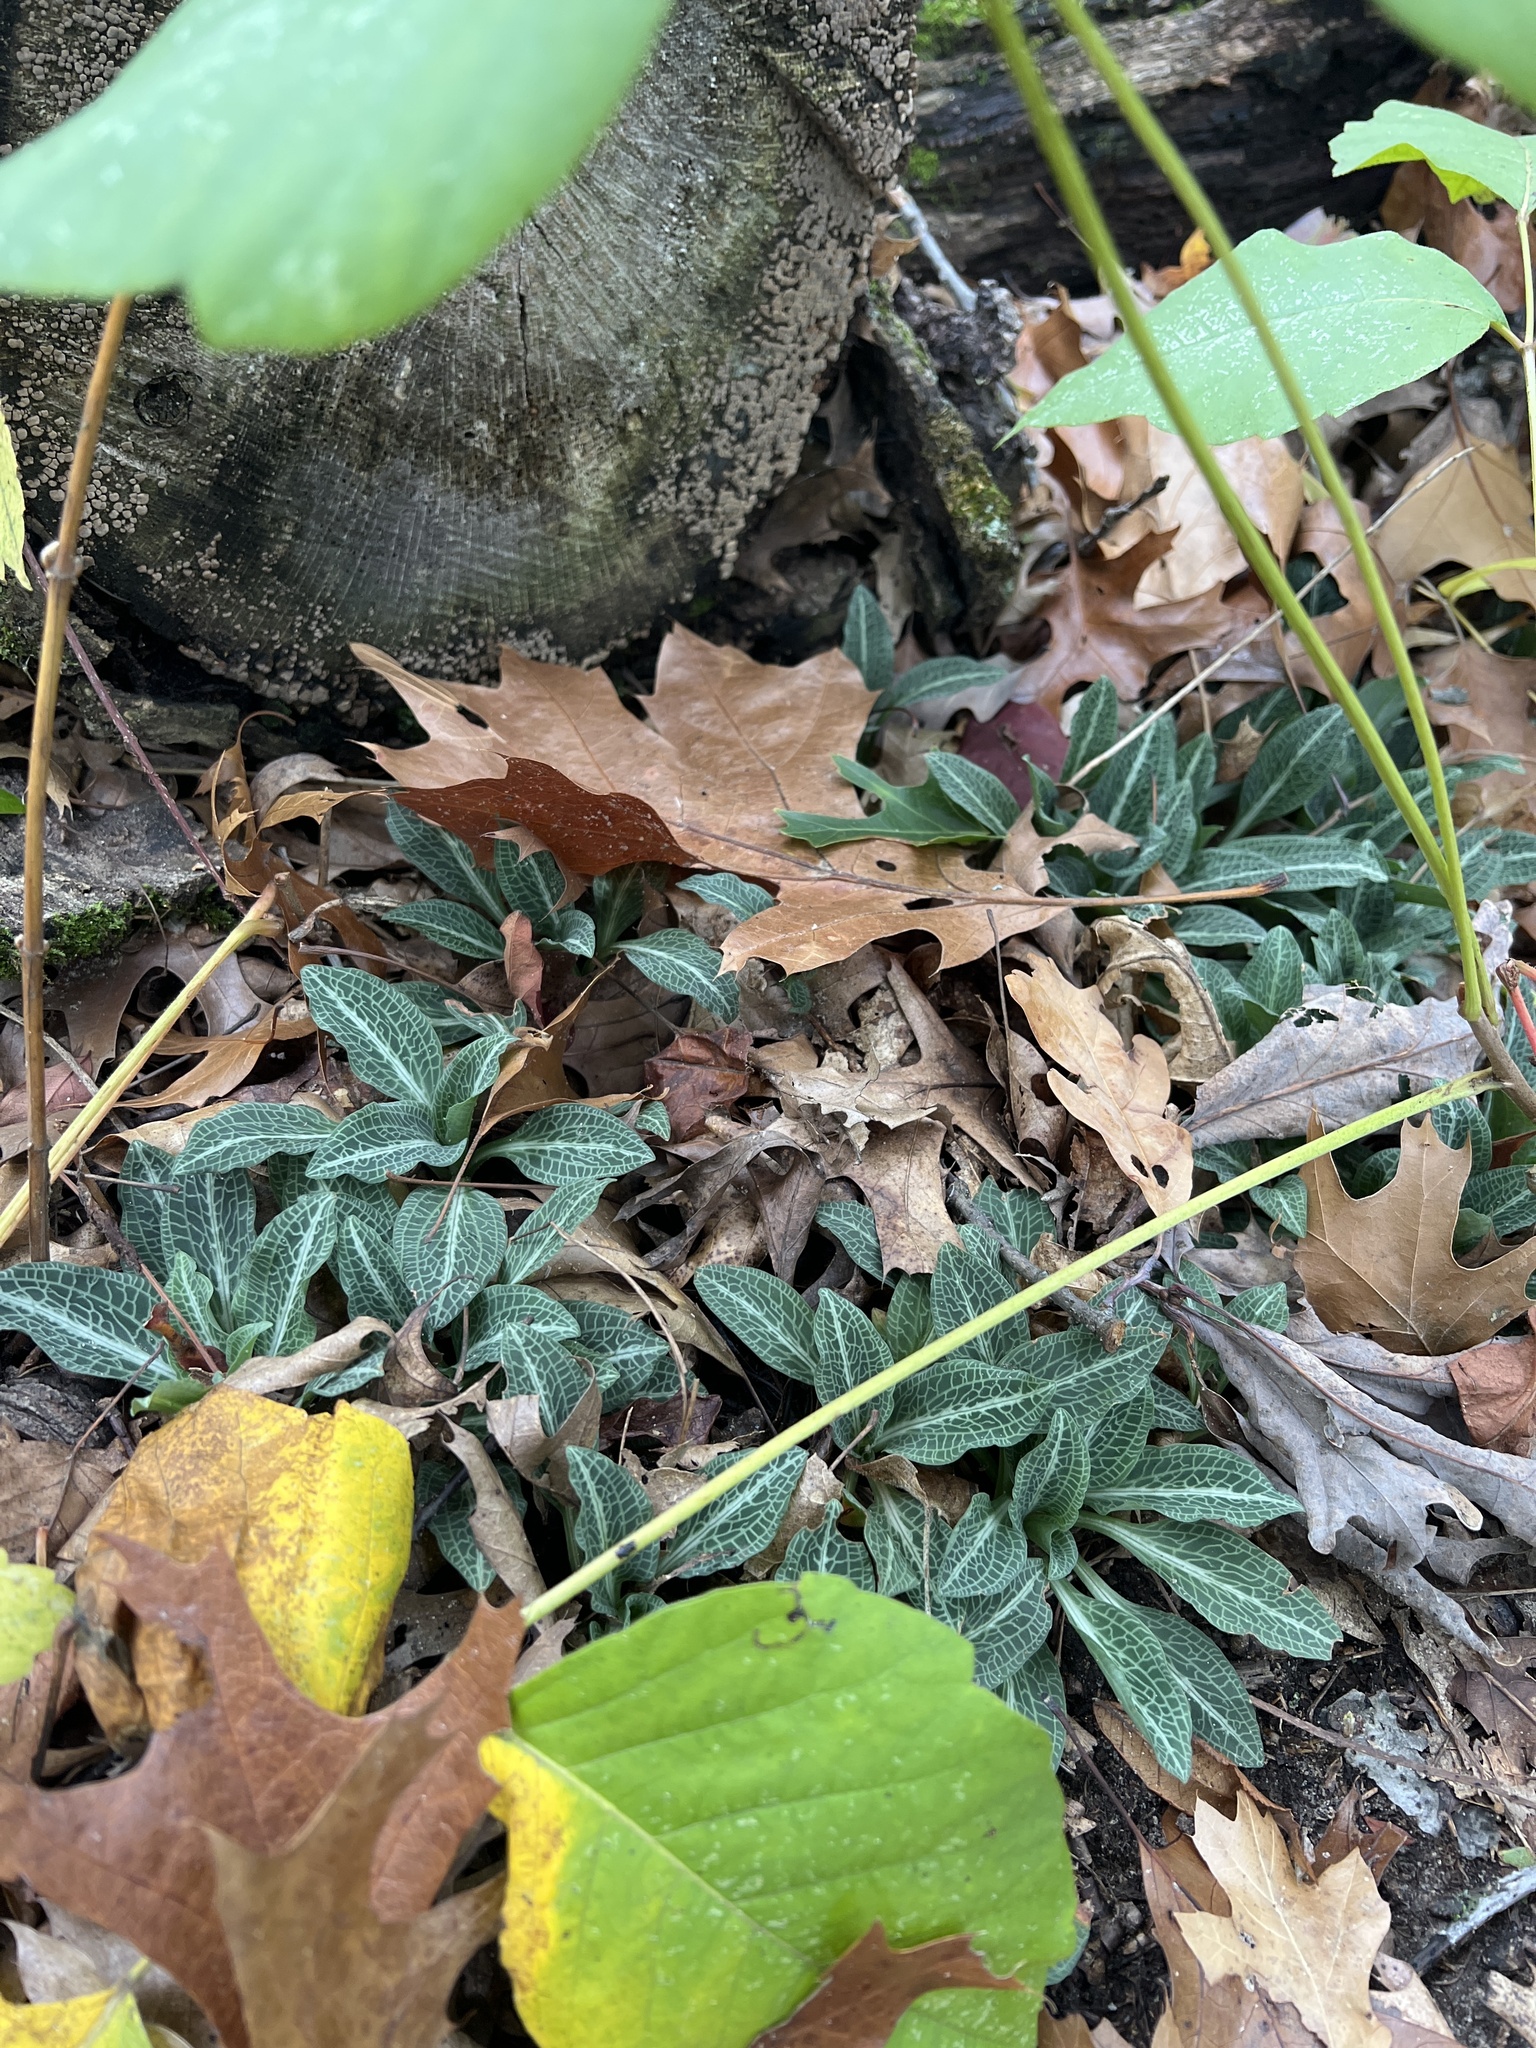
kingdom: Plantae
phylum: Tracheophyta
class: Liliopsida
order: Asparagales
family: Orchidaceae
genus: Goodyera
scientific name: Goodyera pubescens
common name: Downy rattlesnake-plantain
